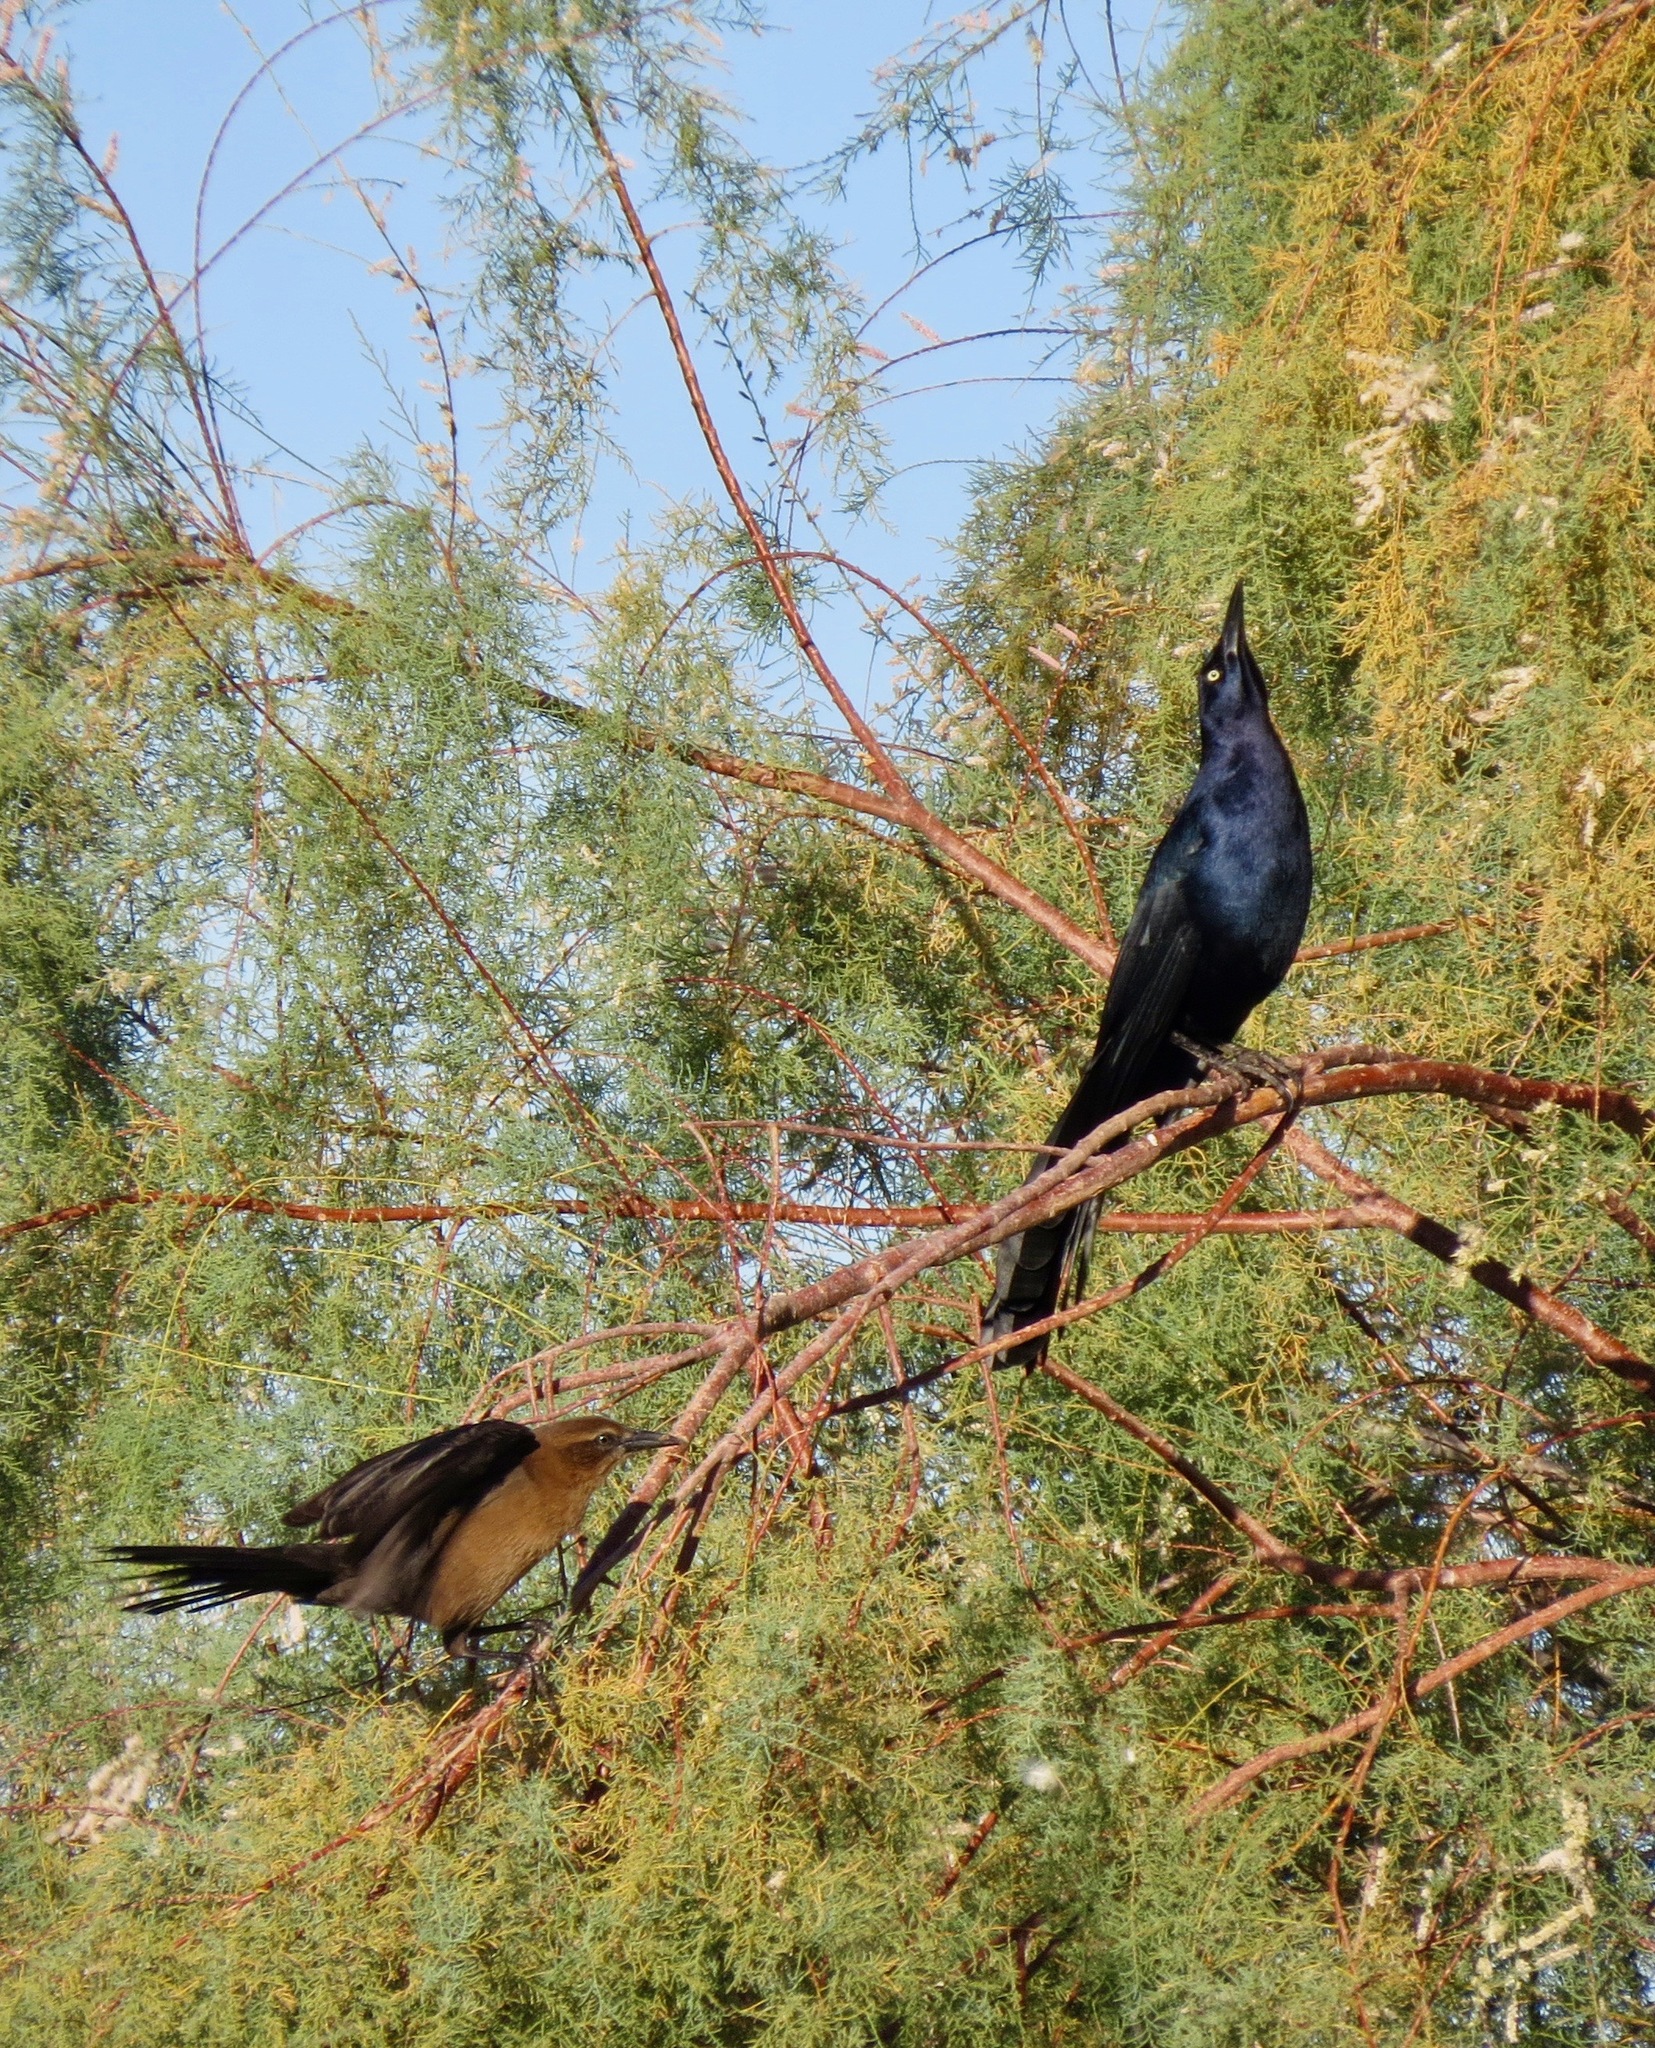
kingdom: Animalia
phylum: Chordata
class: Aves
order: Passeriformes
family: Icteridae
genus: Quiscalus
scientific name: Quiscalus mexicanus
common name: Great-tailed grackle
